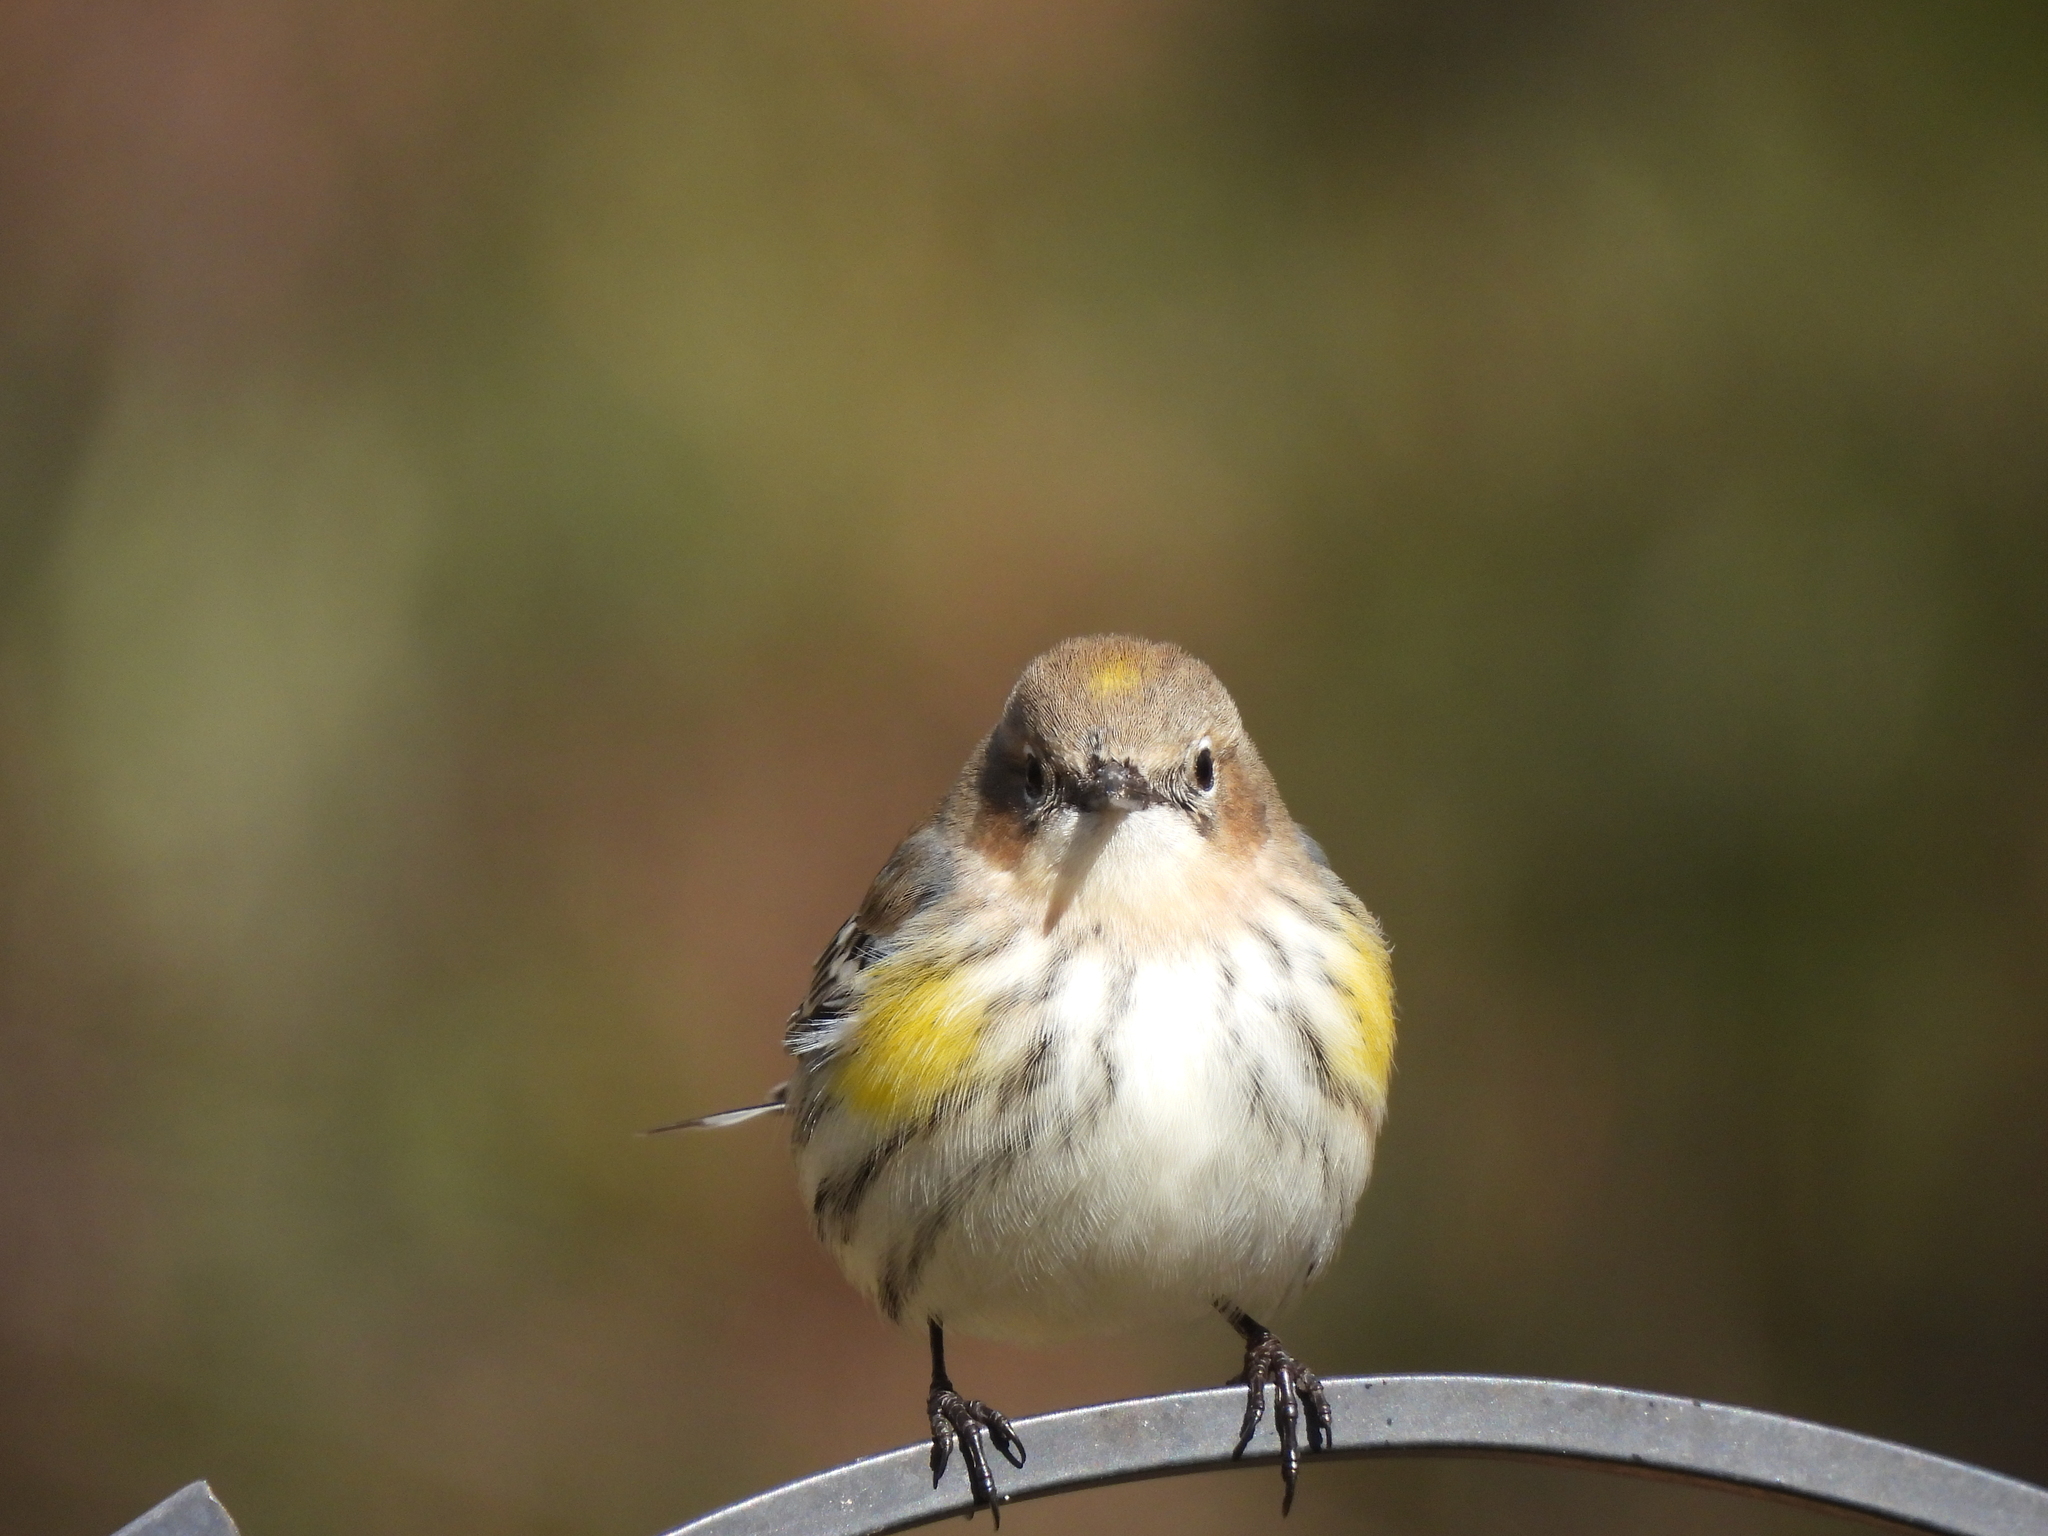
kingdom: Animalia
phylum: Chordata
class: Aves
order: Passeriformes
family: Parulidae
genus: Setophaga
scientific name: Setophaga coronata
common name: Myrtle warbler
